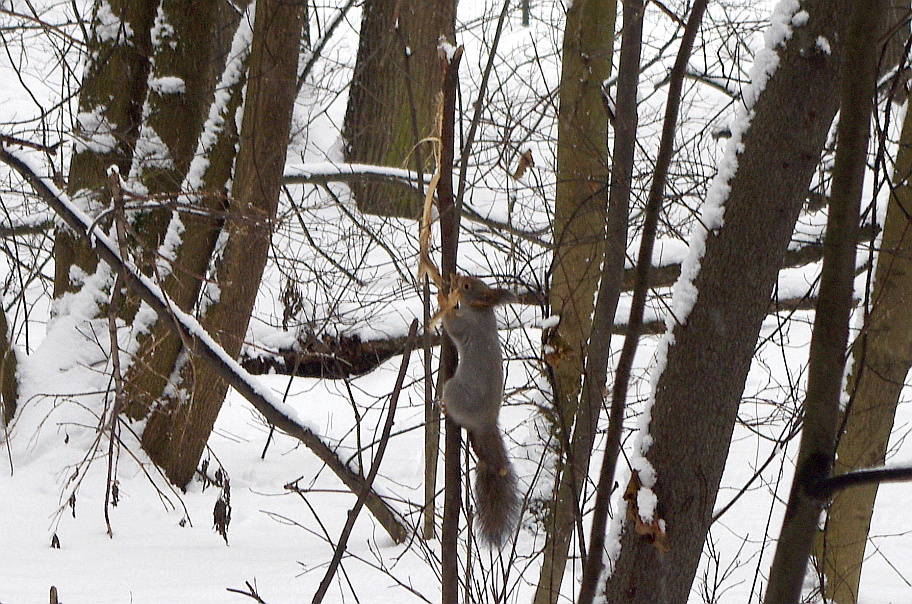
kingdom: Animalia
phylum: Chordata
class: Mammalia
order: Rodentia
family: Sciuridae
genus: Sciurus
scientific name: Sciurus vulgaris
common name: Eurasian red squirrel
